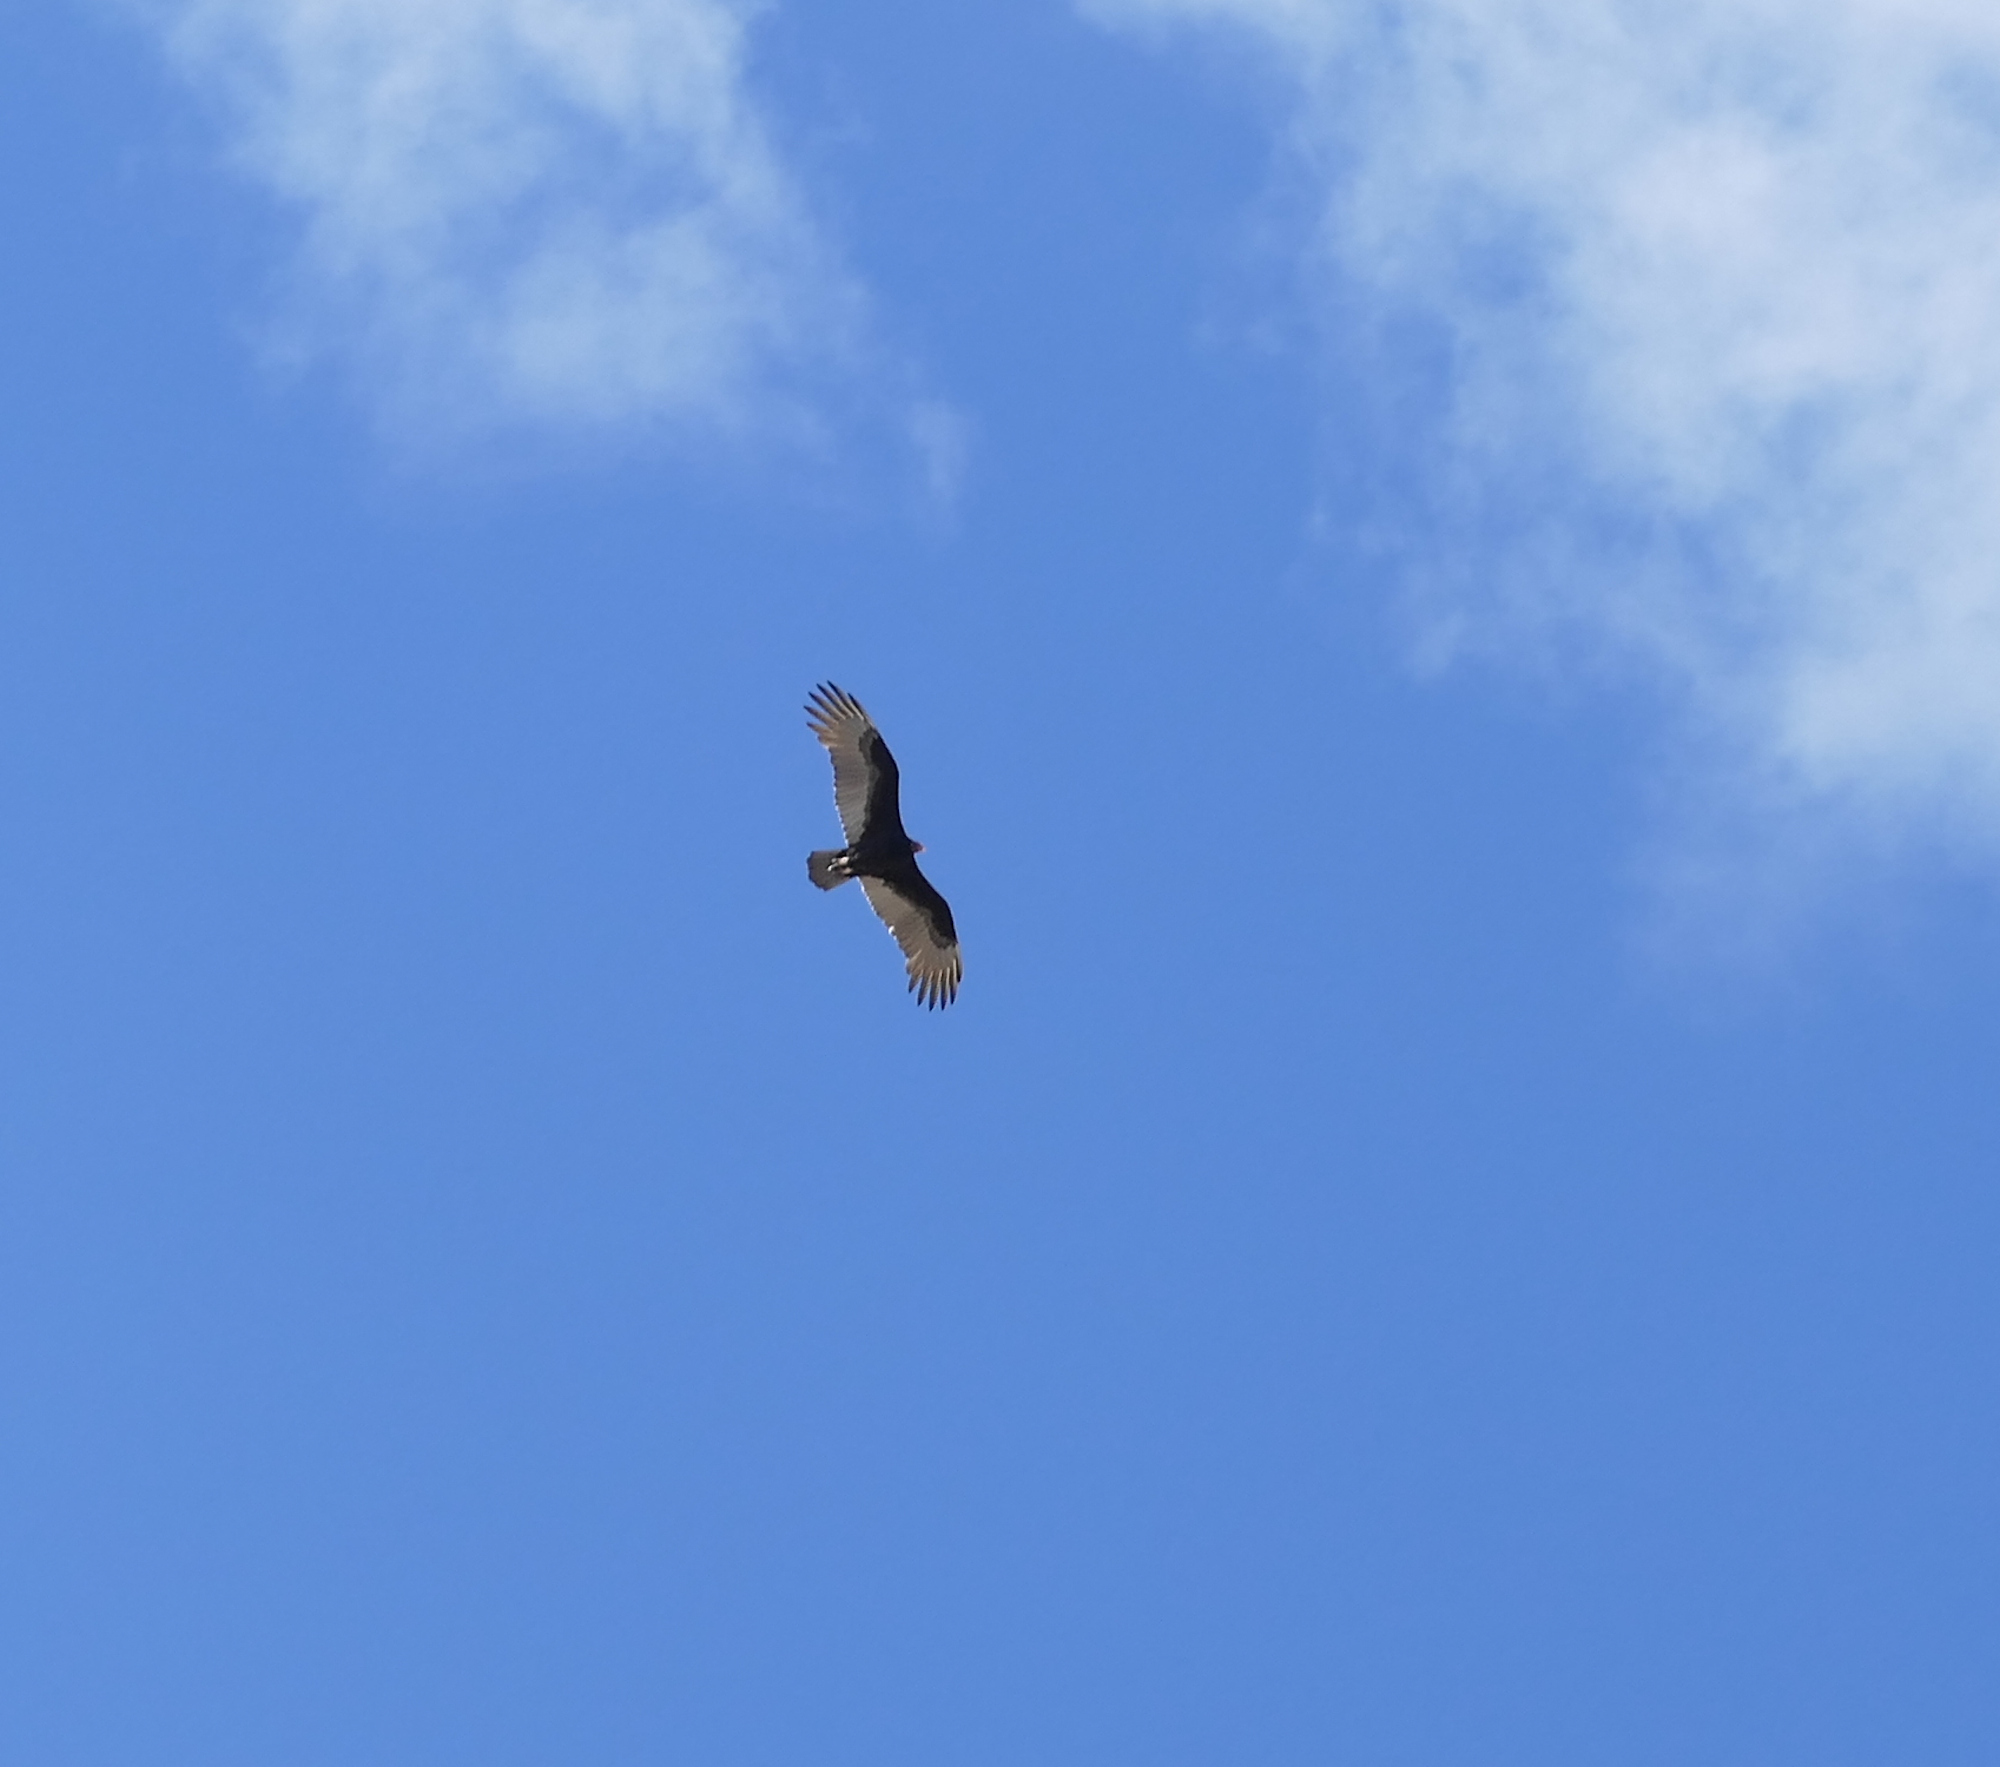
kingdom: Animalia
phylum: Chordata
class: Aves
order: Accipitriformes
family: Cathartidae
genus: Cathartes
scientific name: Cathartes aura
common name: Turkey vulture
